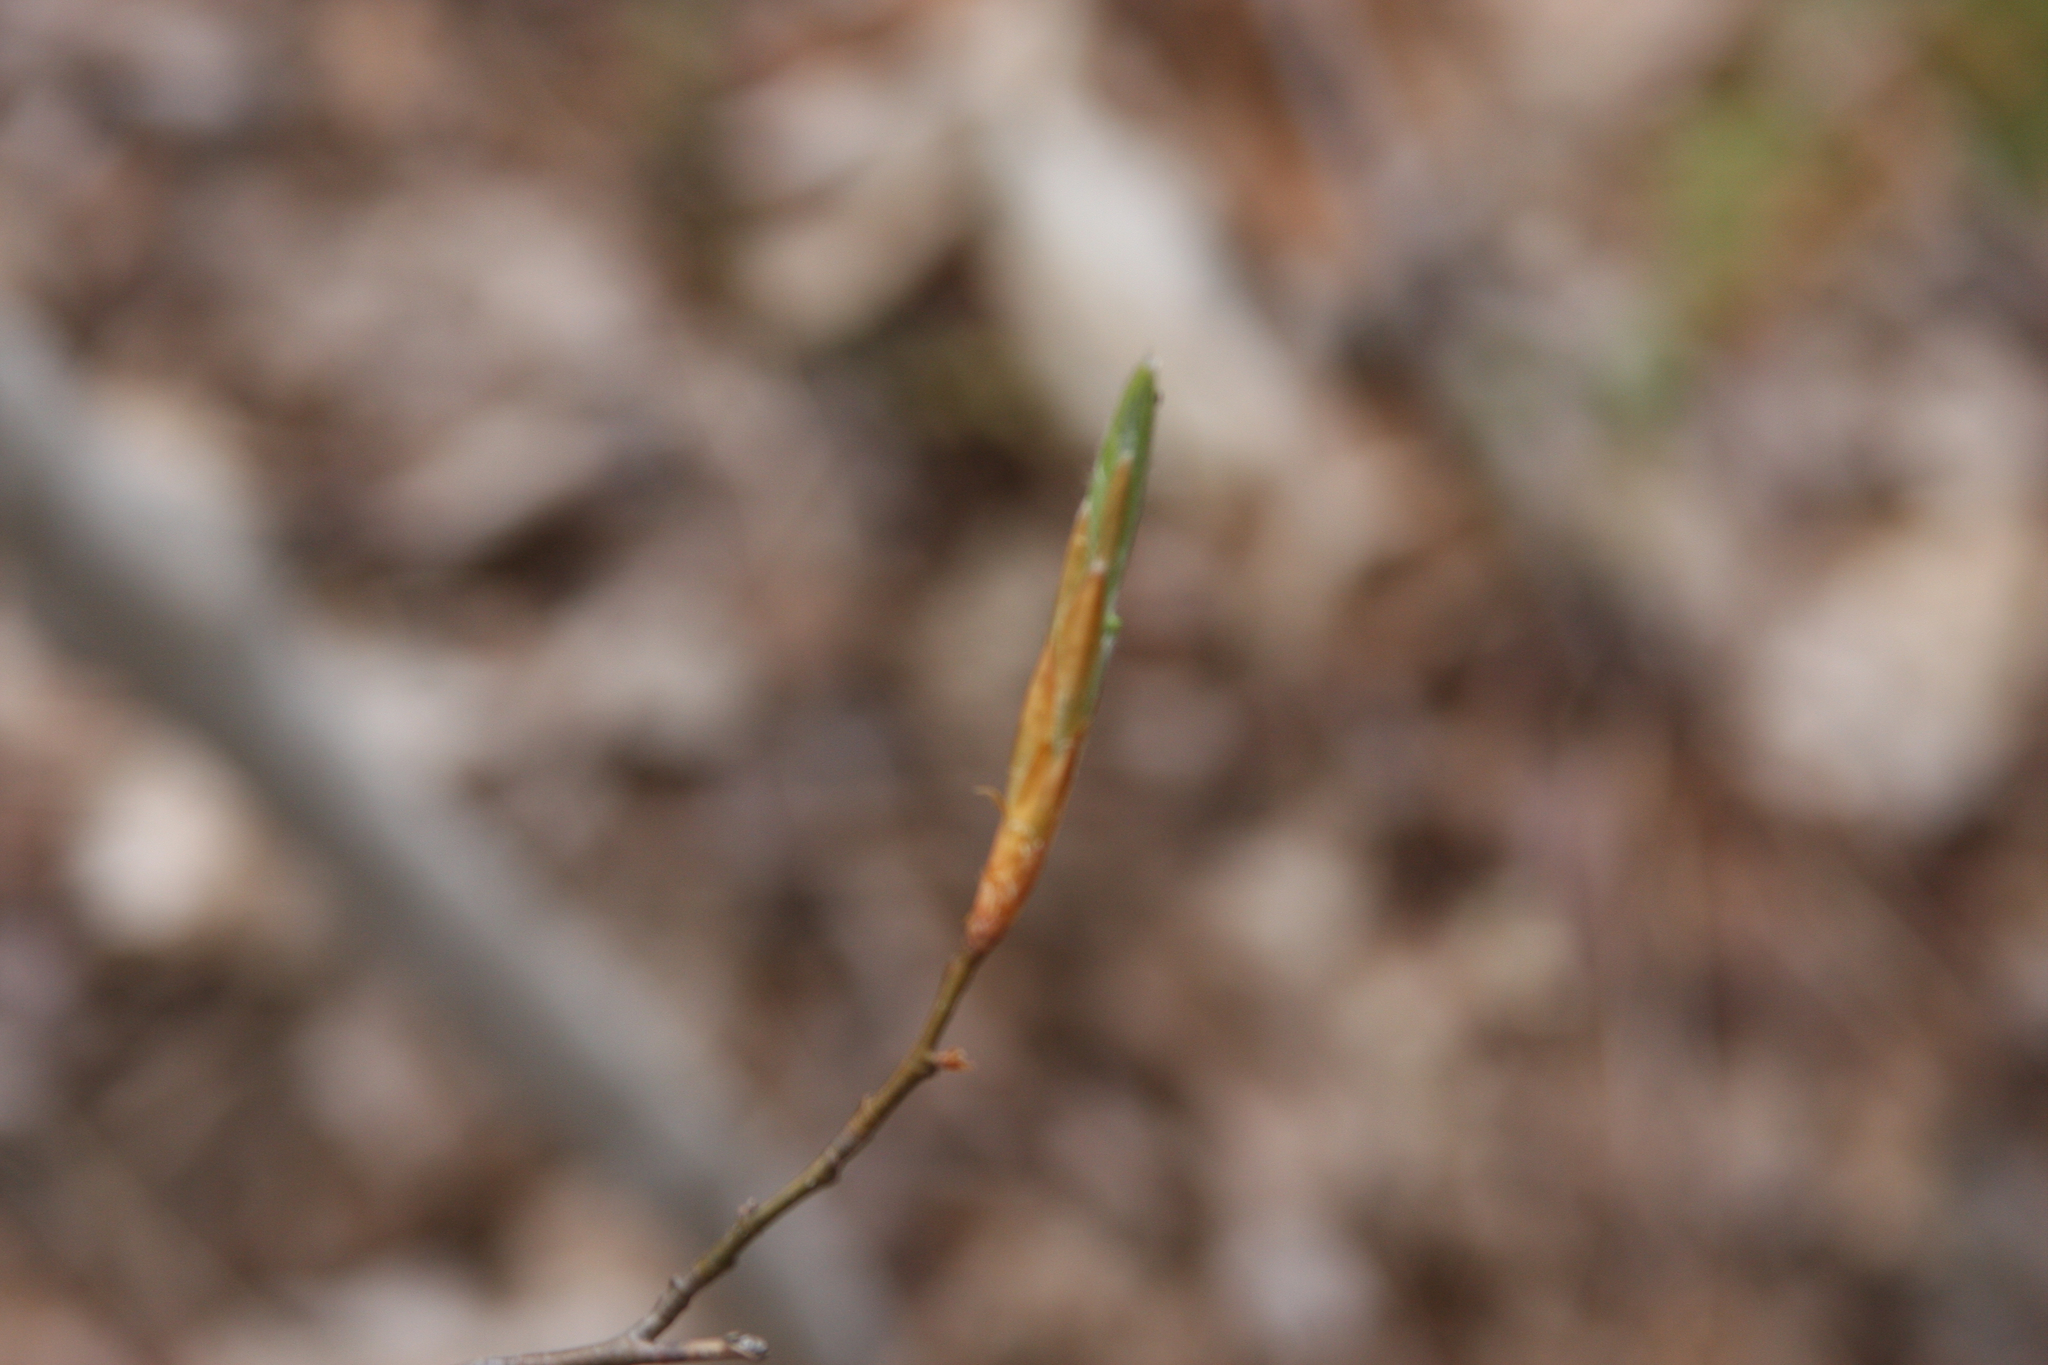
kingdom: Plantae
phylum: Tracheophyta
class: Magnoliopsida
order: Fagales
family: Fagaceae
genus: Fagus
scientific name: Fagus grandifolia
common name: American beech
